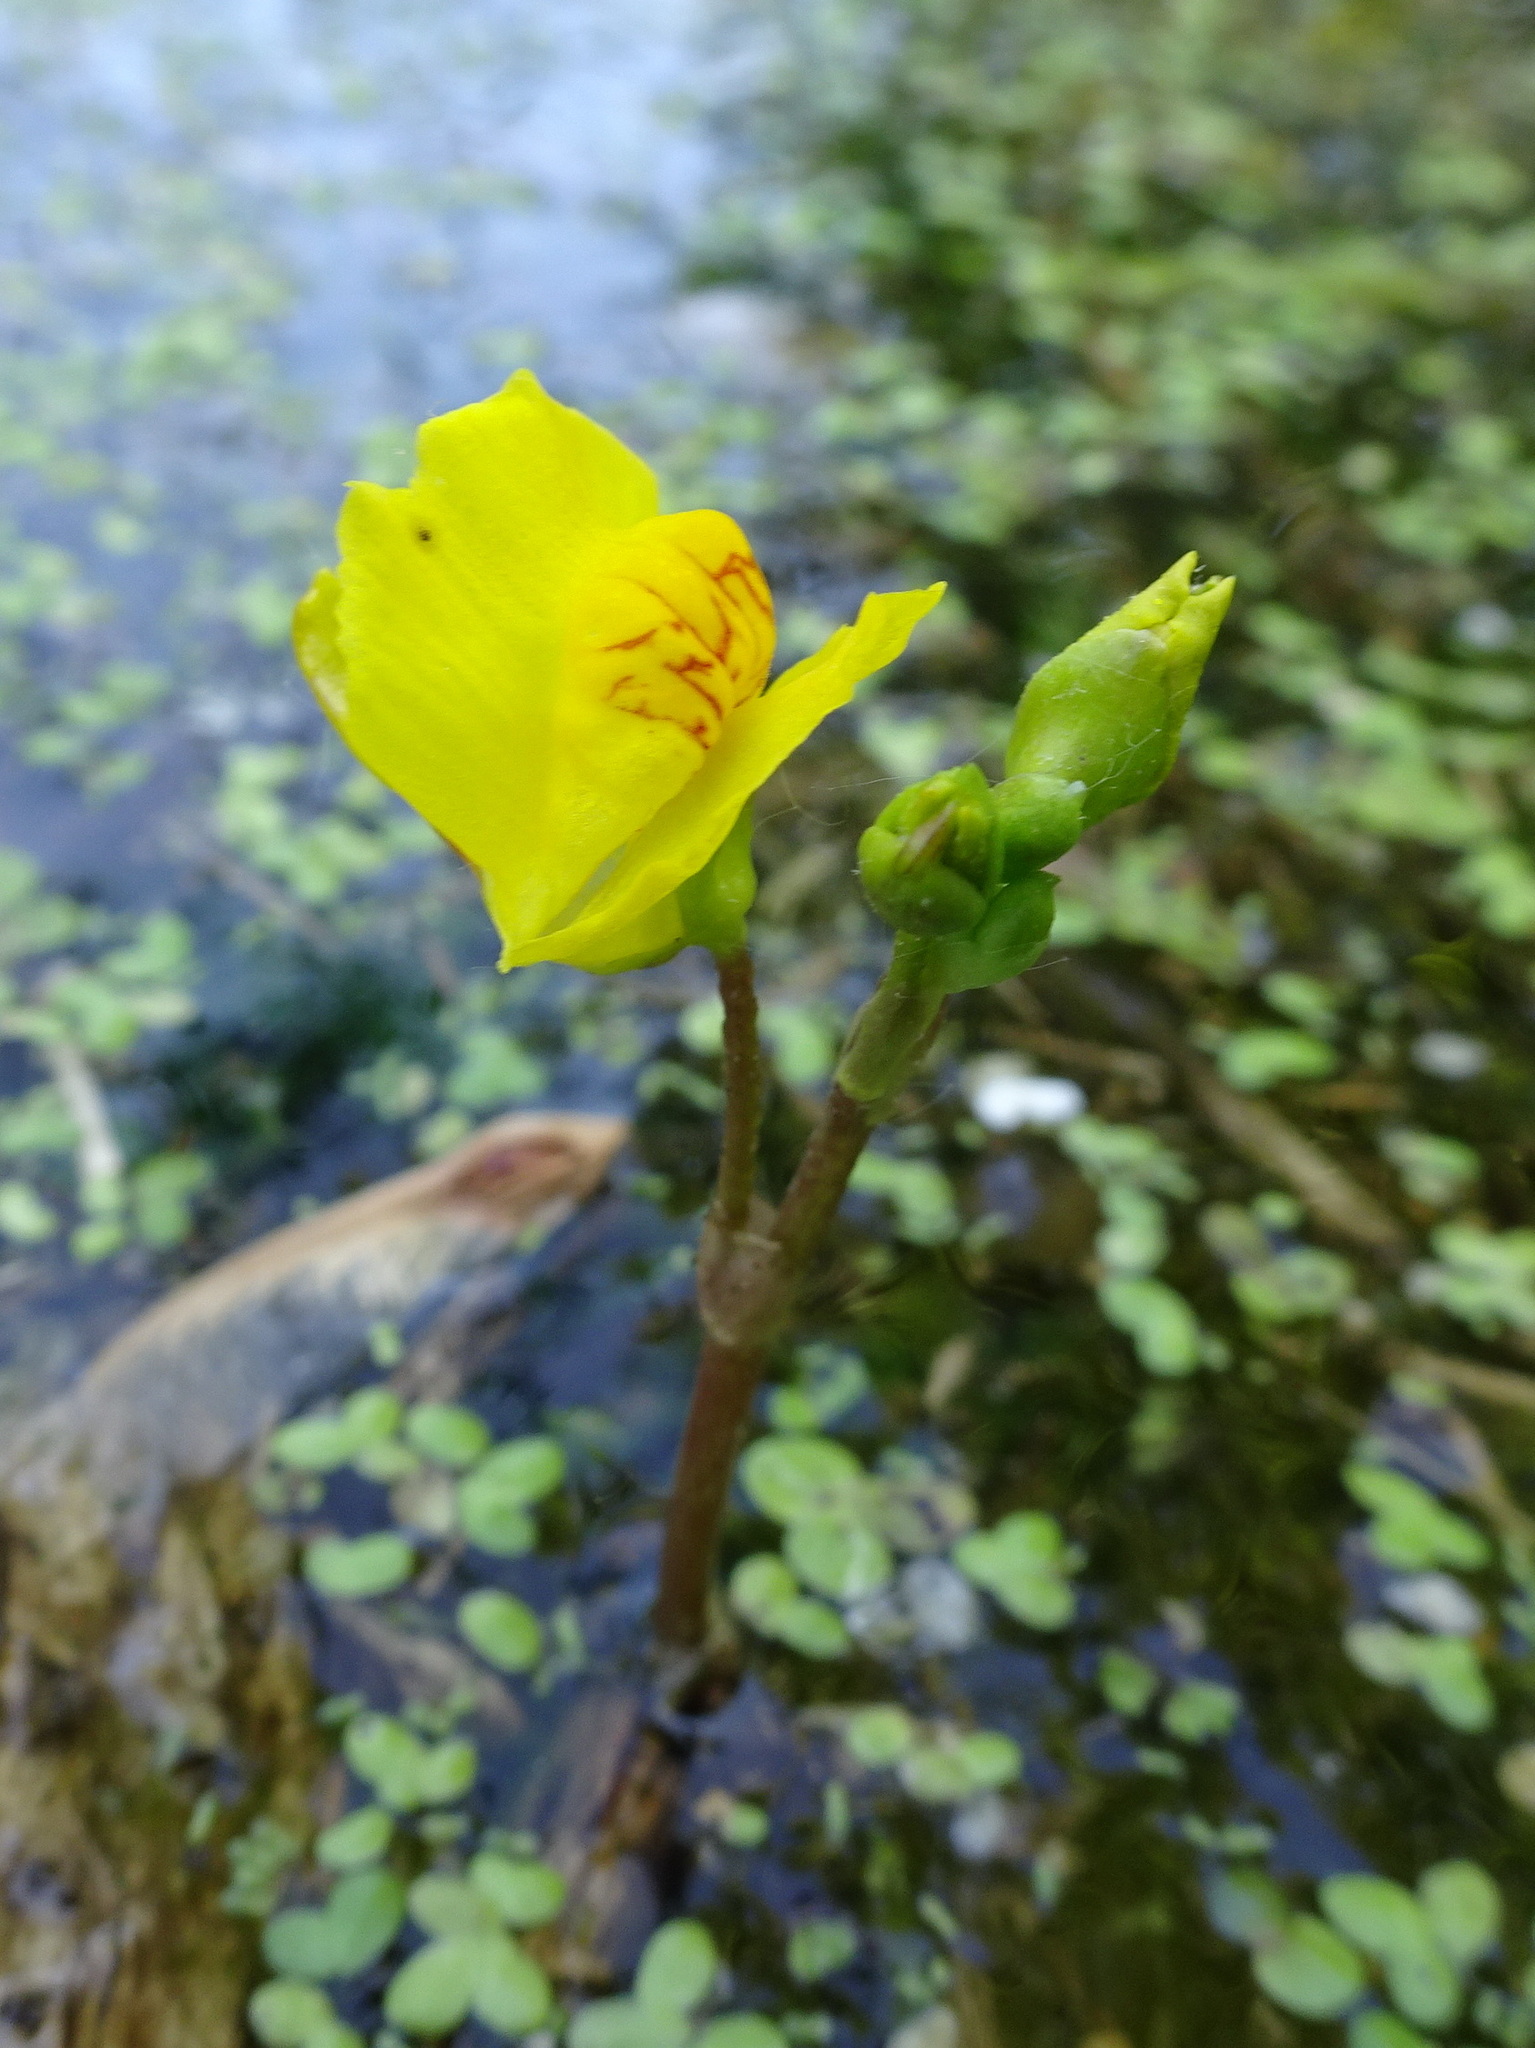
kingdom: Plantae
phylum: Tracheophyta
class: Magnoliopsida
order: Lamiales
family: Lentibulariaceae
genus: Utricularia
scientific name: Utricularia macrorhiza
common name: Common bladderwort
